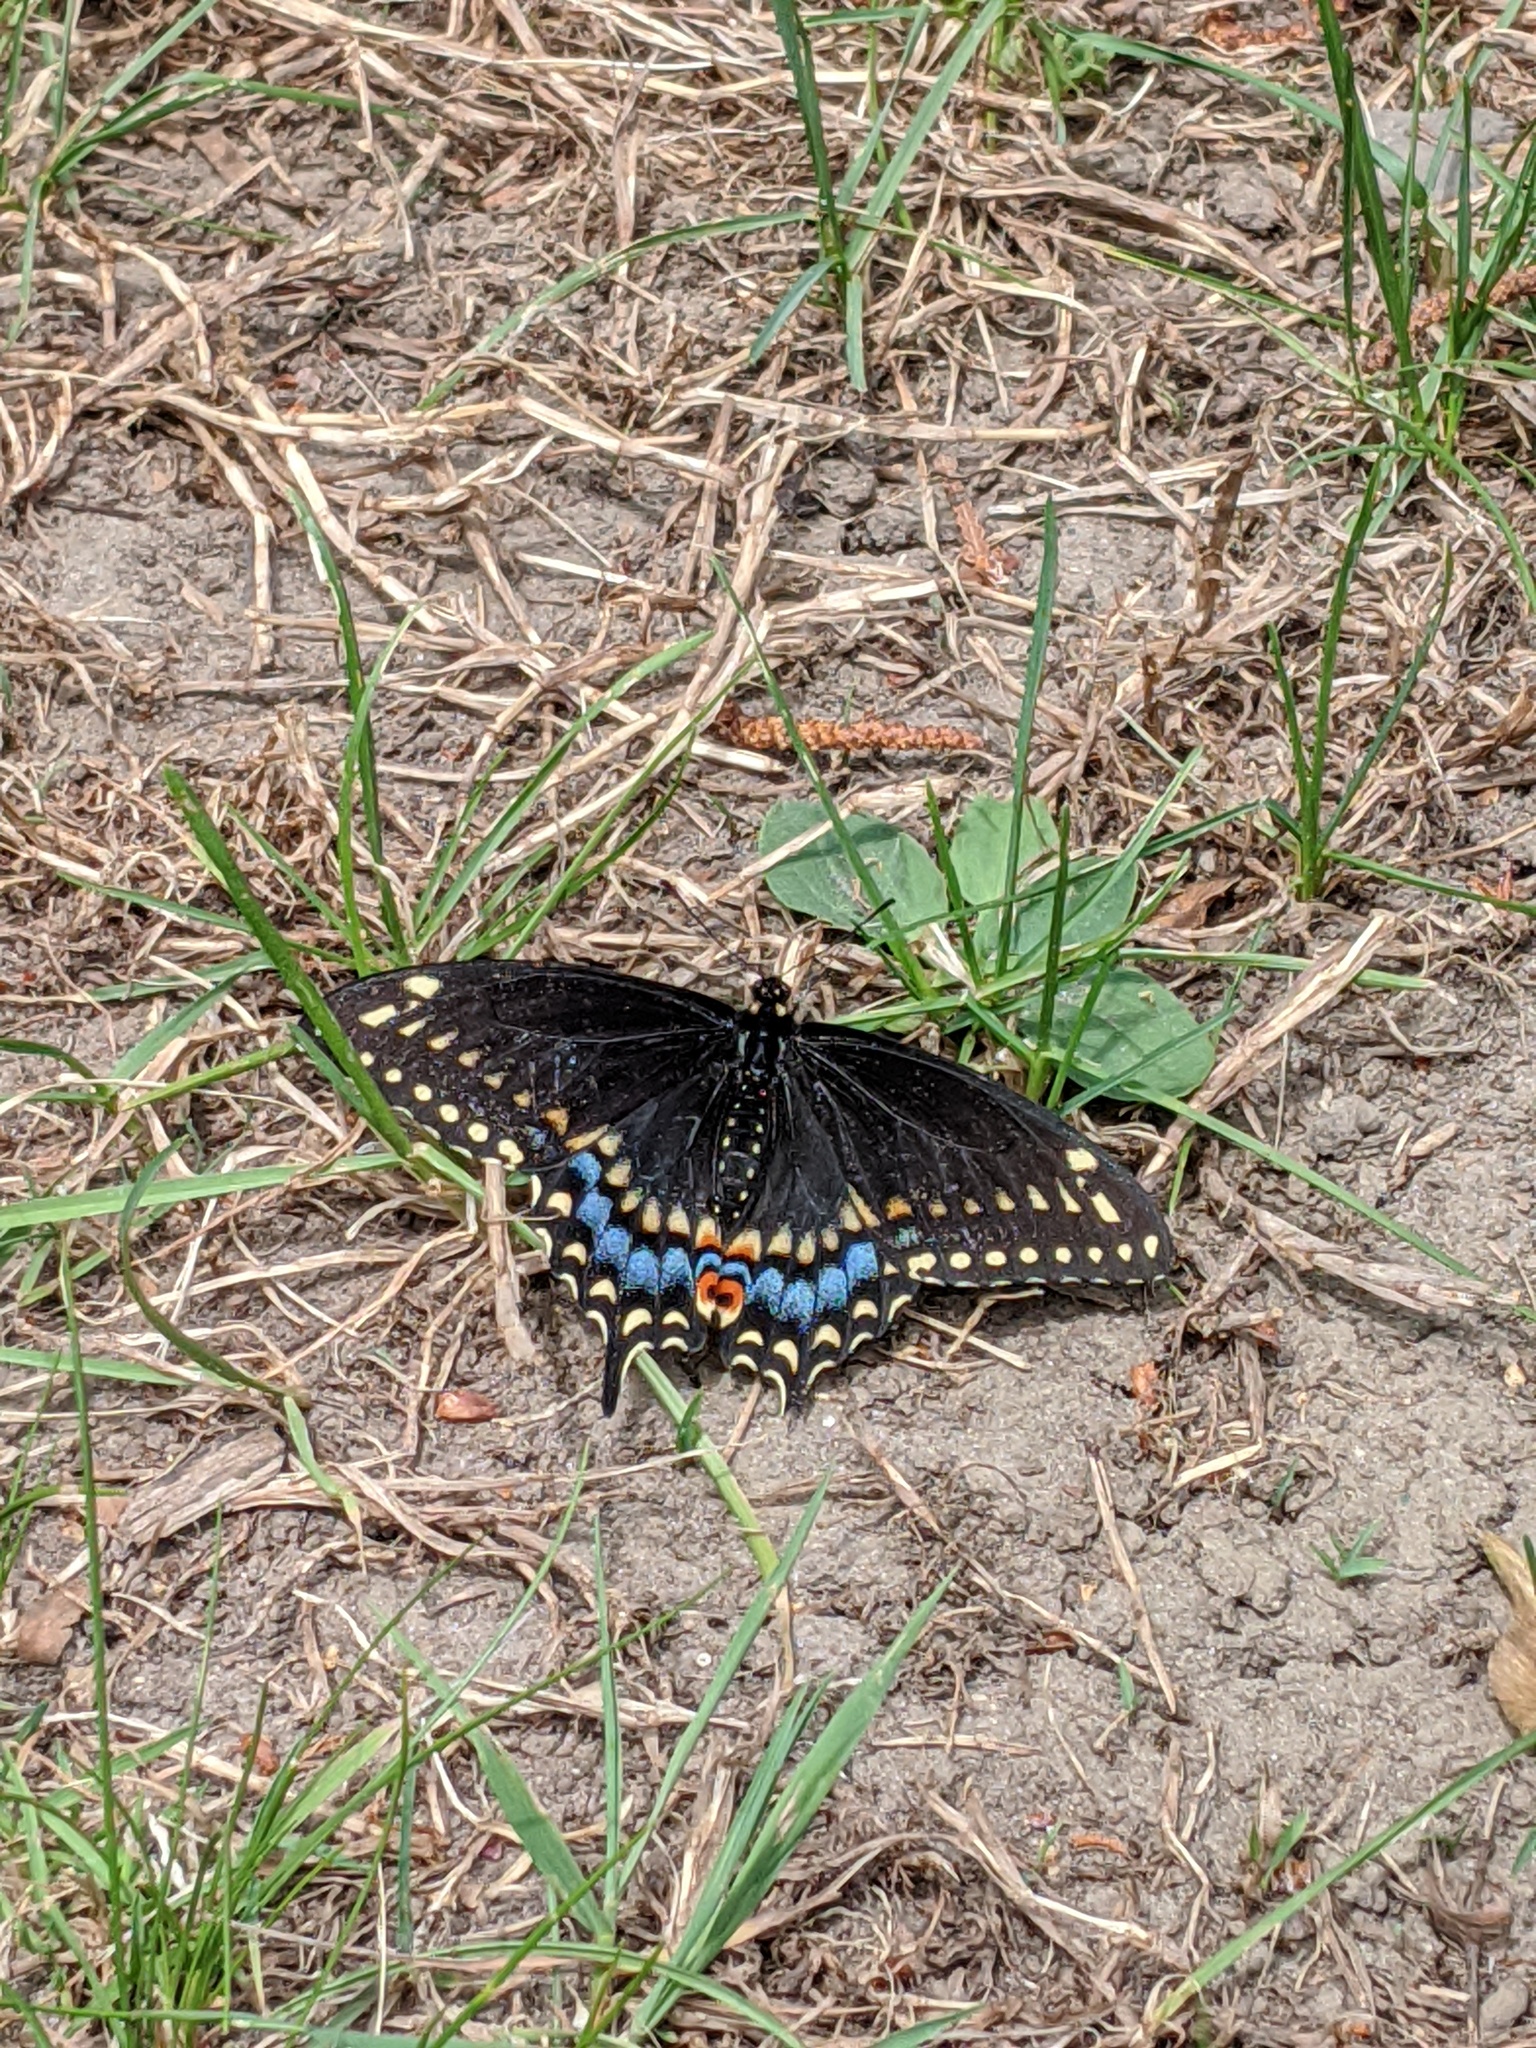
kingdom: Animalia
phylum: Arthropoda
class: Insecta
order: Lepidoptera
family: Papilionidae
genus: Papilio
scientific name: Papilio polyxenes
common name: Black swallowtail
